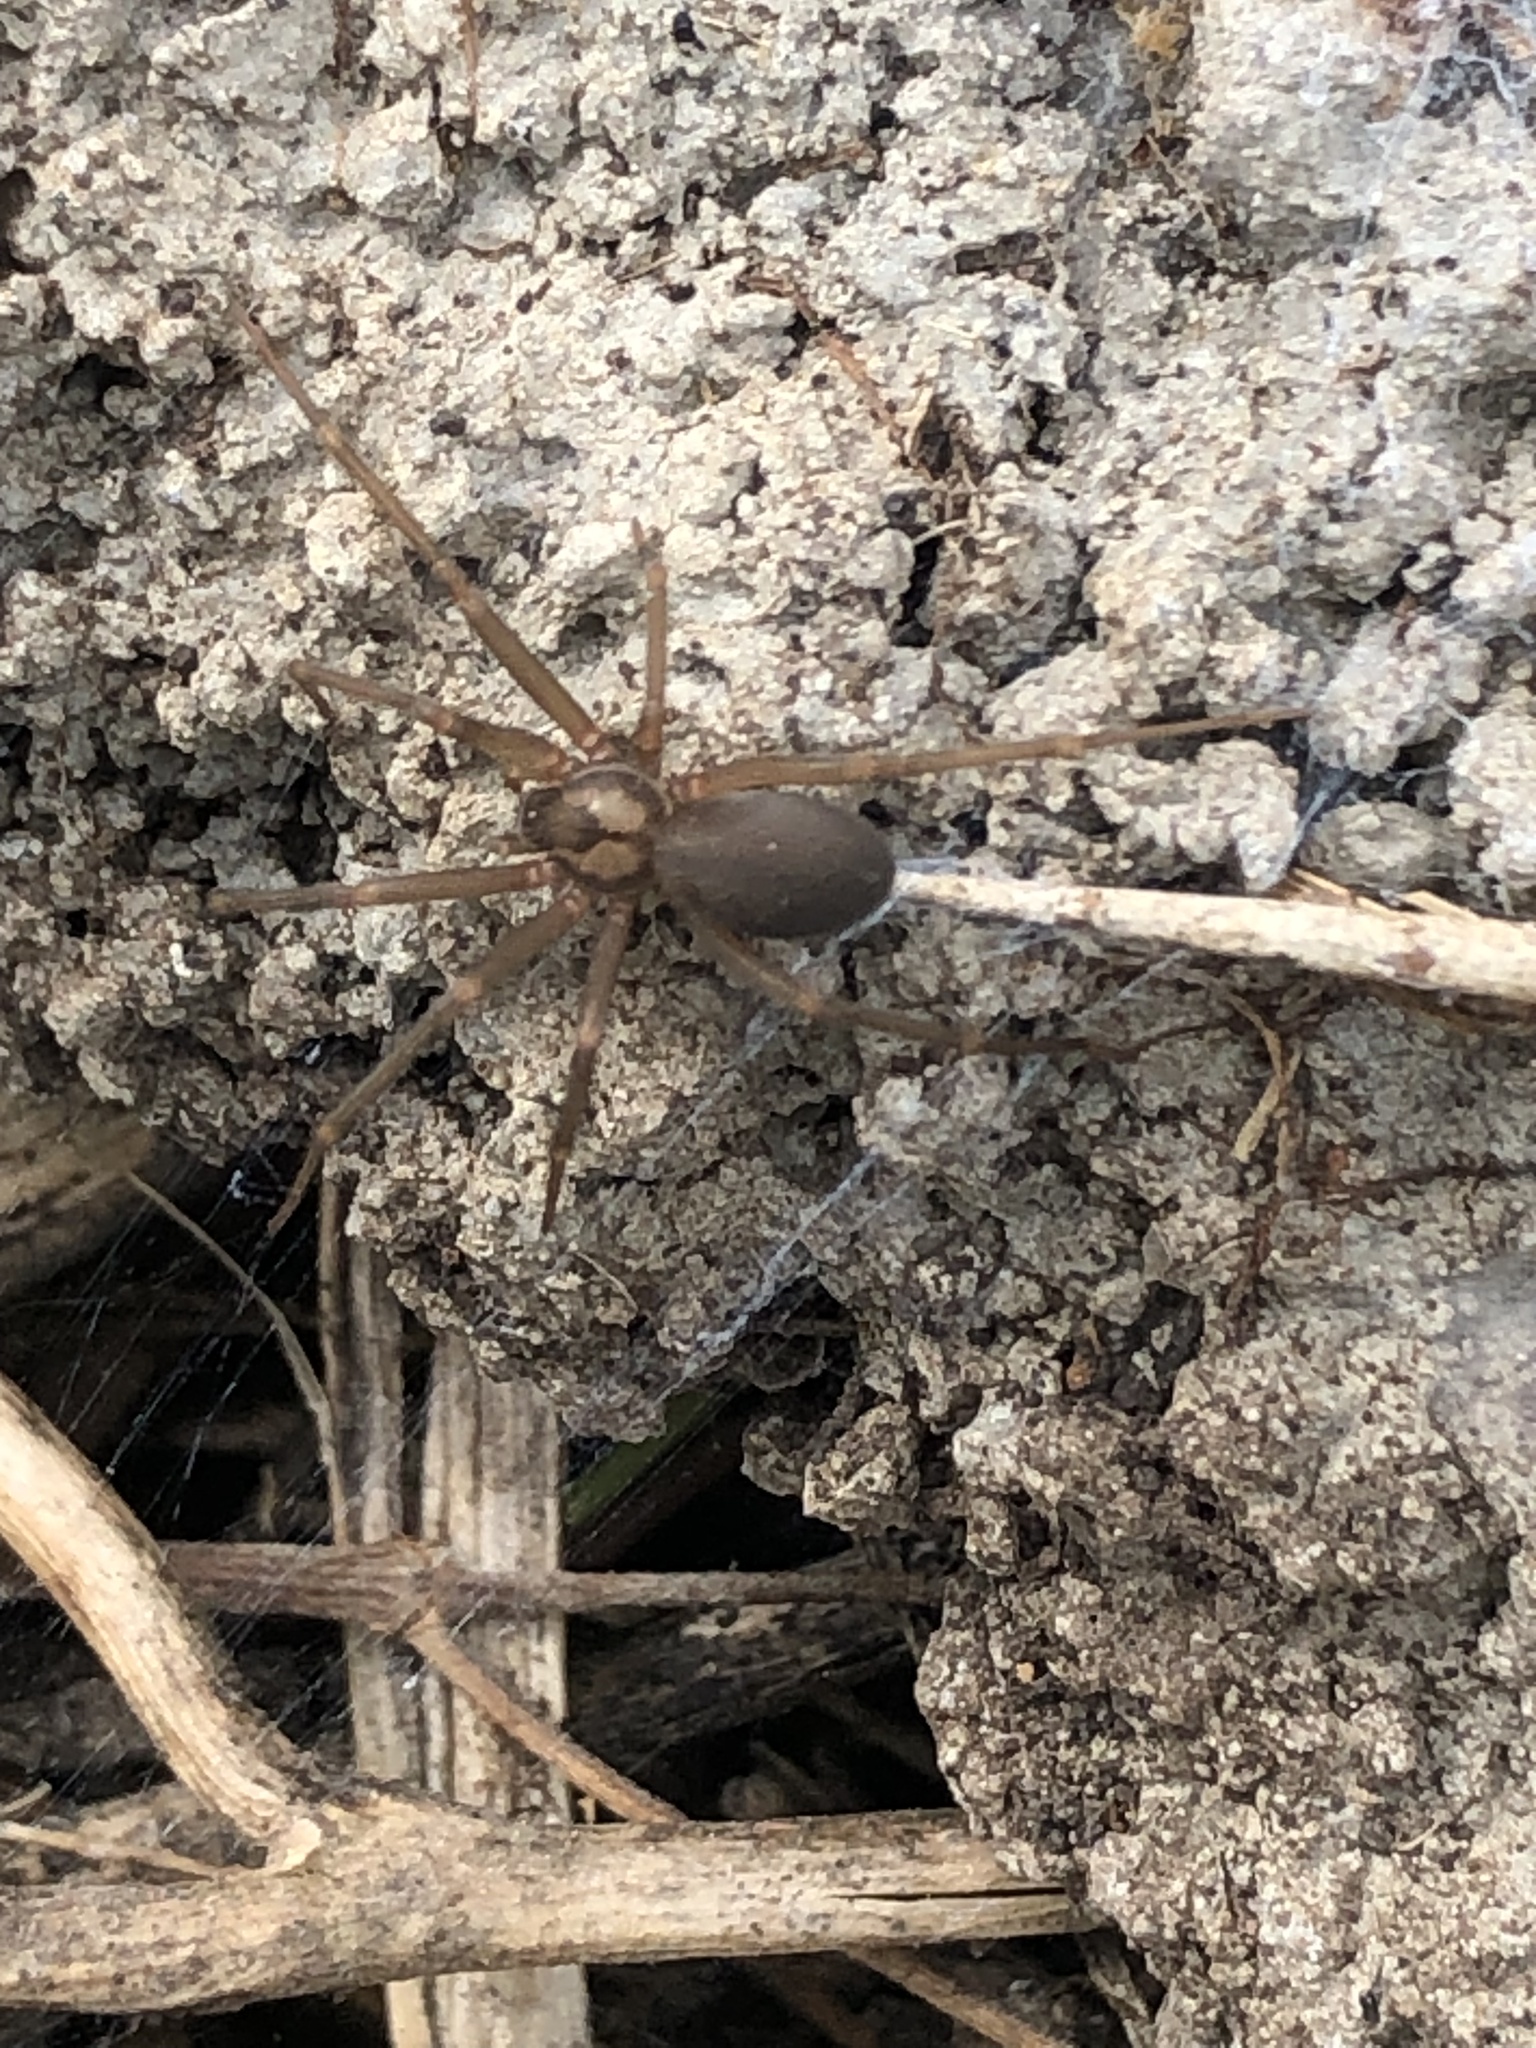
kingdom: Animalia
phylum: Arthropoda
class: Arachnida
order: Araneae
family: Sicariidae
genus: Loxosceles
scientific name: Loxosceles colima
